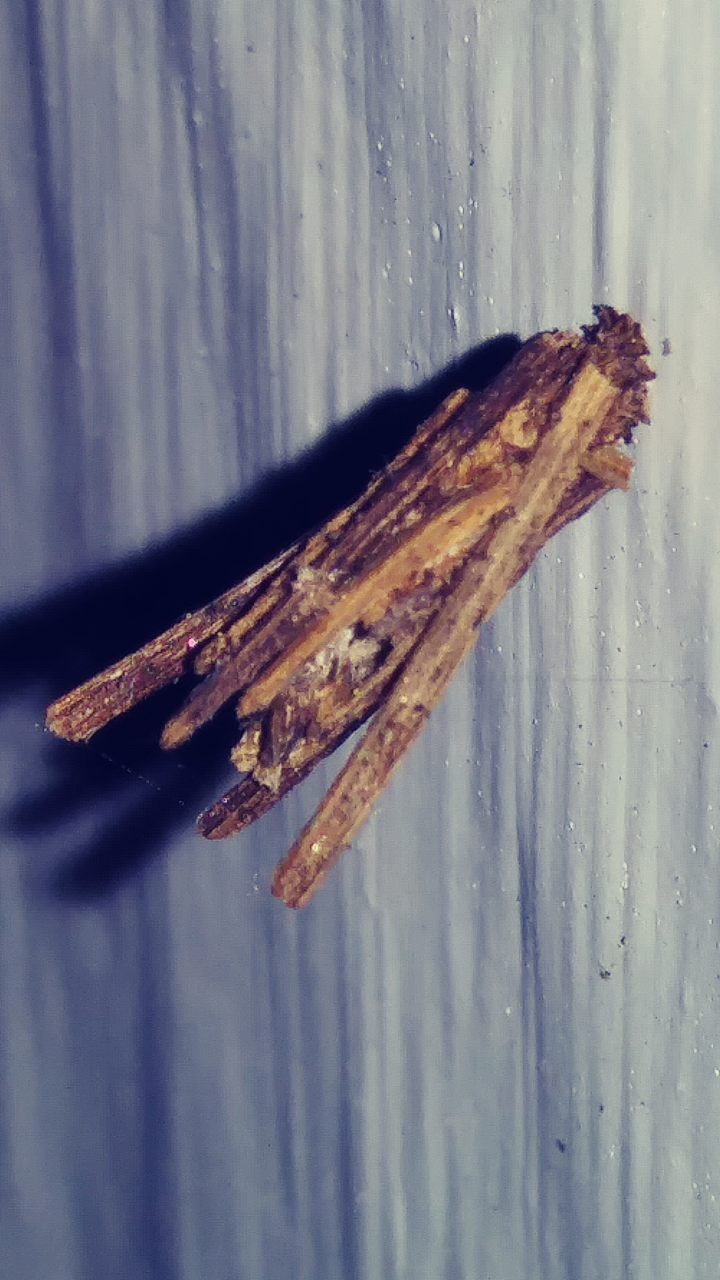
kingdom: Animalia
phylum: Arthropoda
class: Insecta
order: Lepidoptera
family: Psychidae
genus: Psyche
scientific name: Psyche casta
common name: Common sweep
